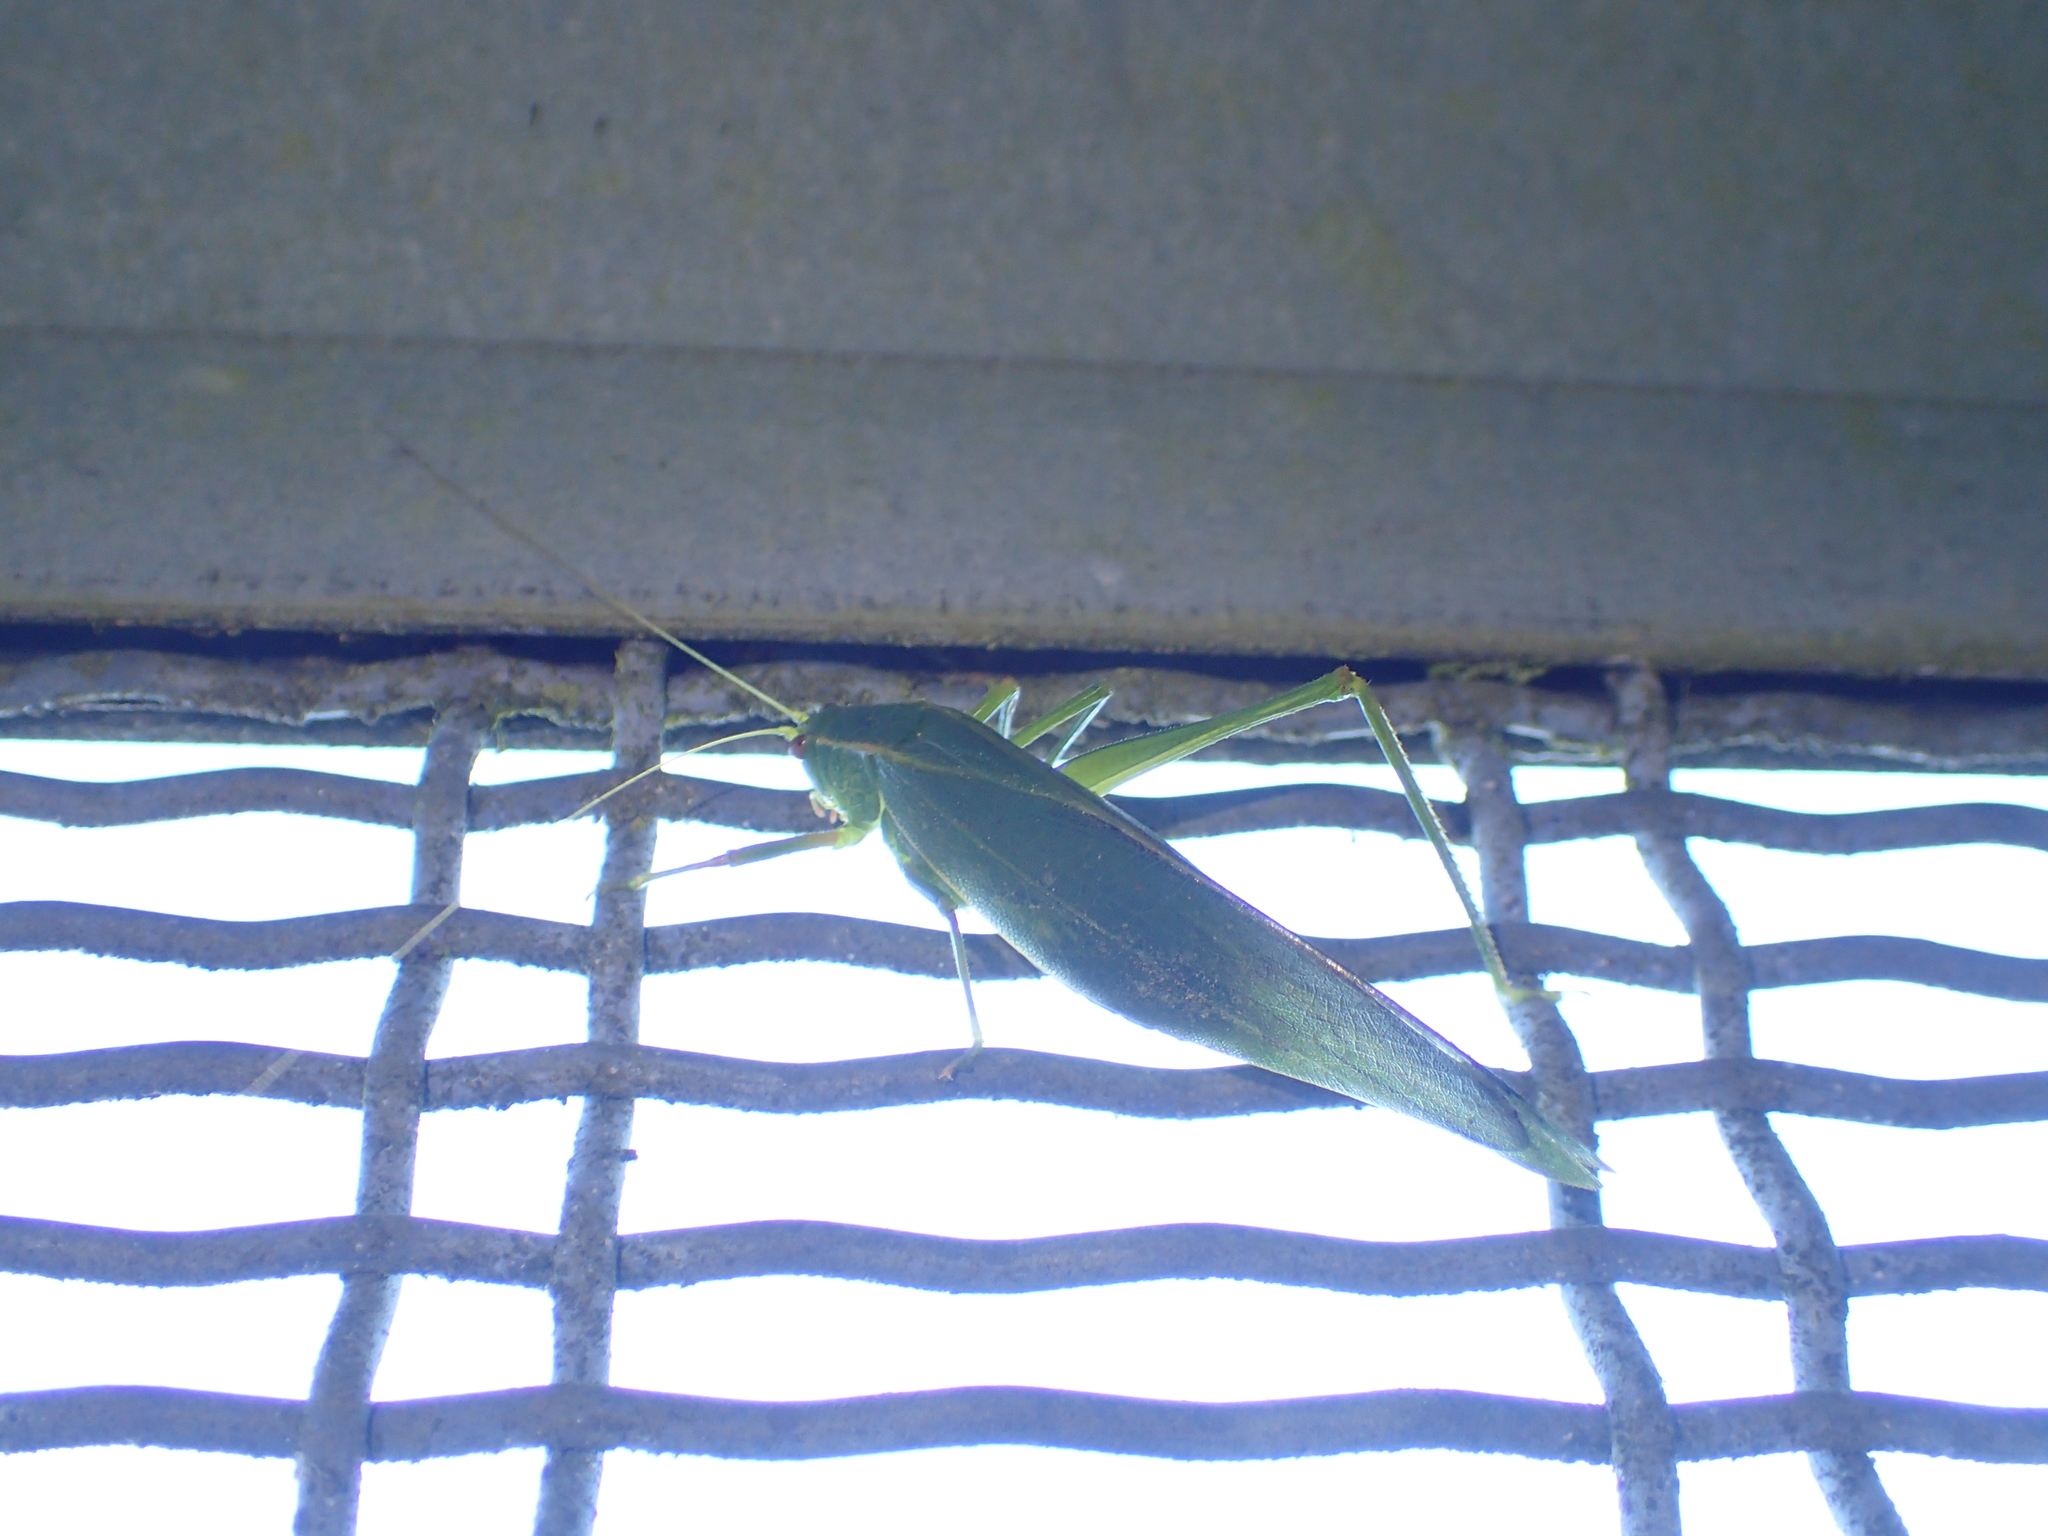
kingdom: Animalia
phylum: Arthropoda
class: Insecta
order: Orthoptera
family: Tettigoniidae
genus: Caedicia
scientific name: Caedicia simplex
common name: Common garden katydid
